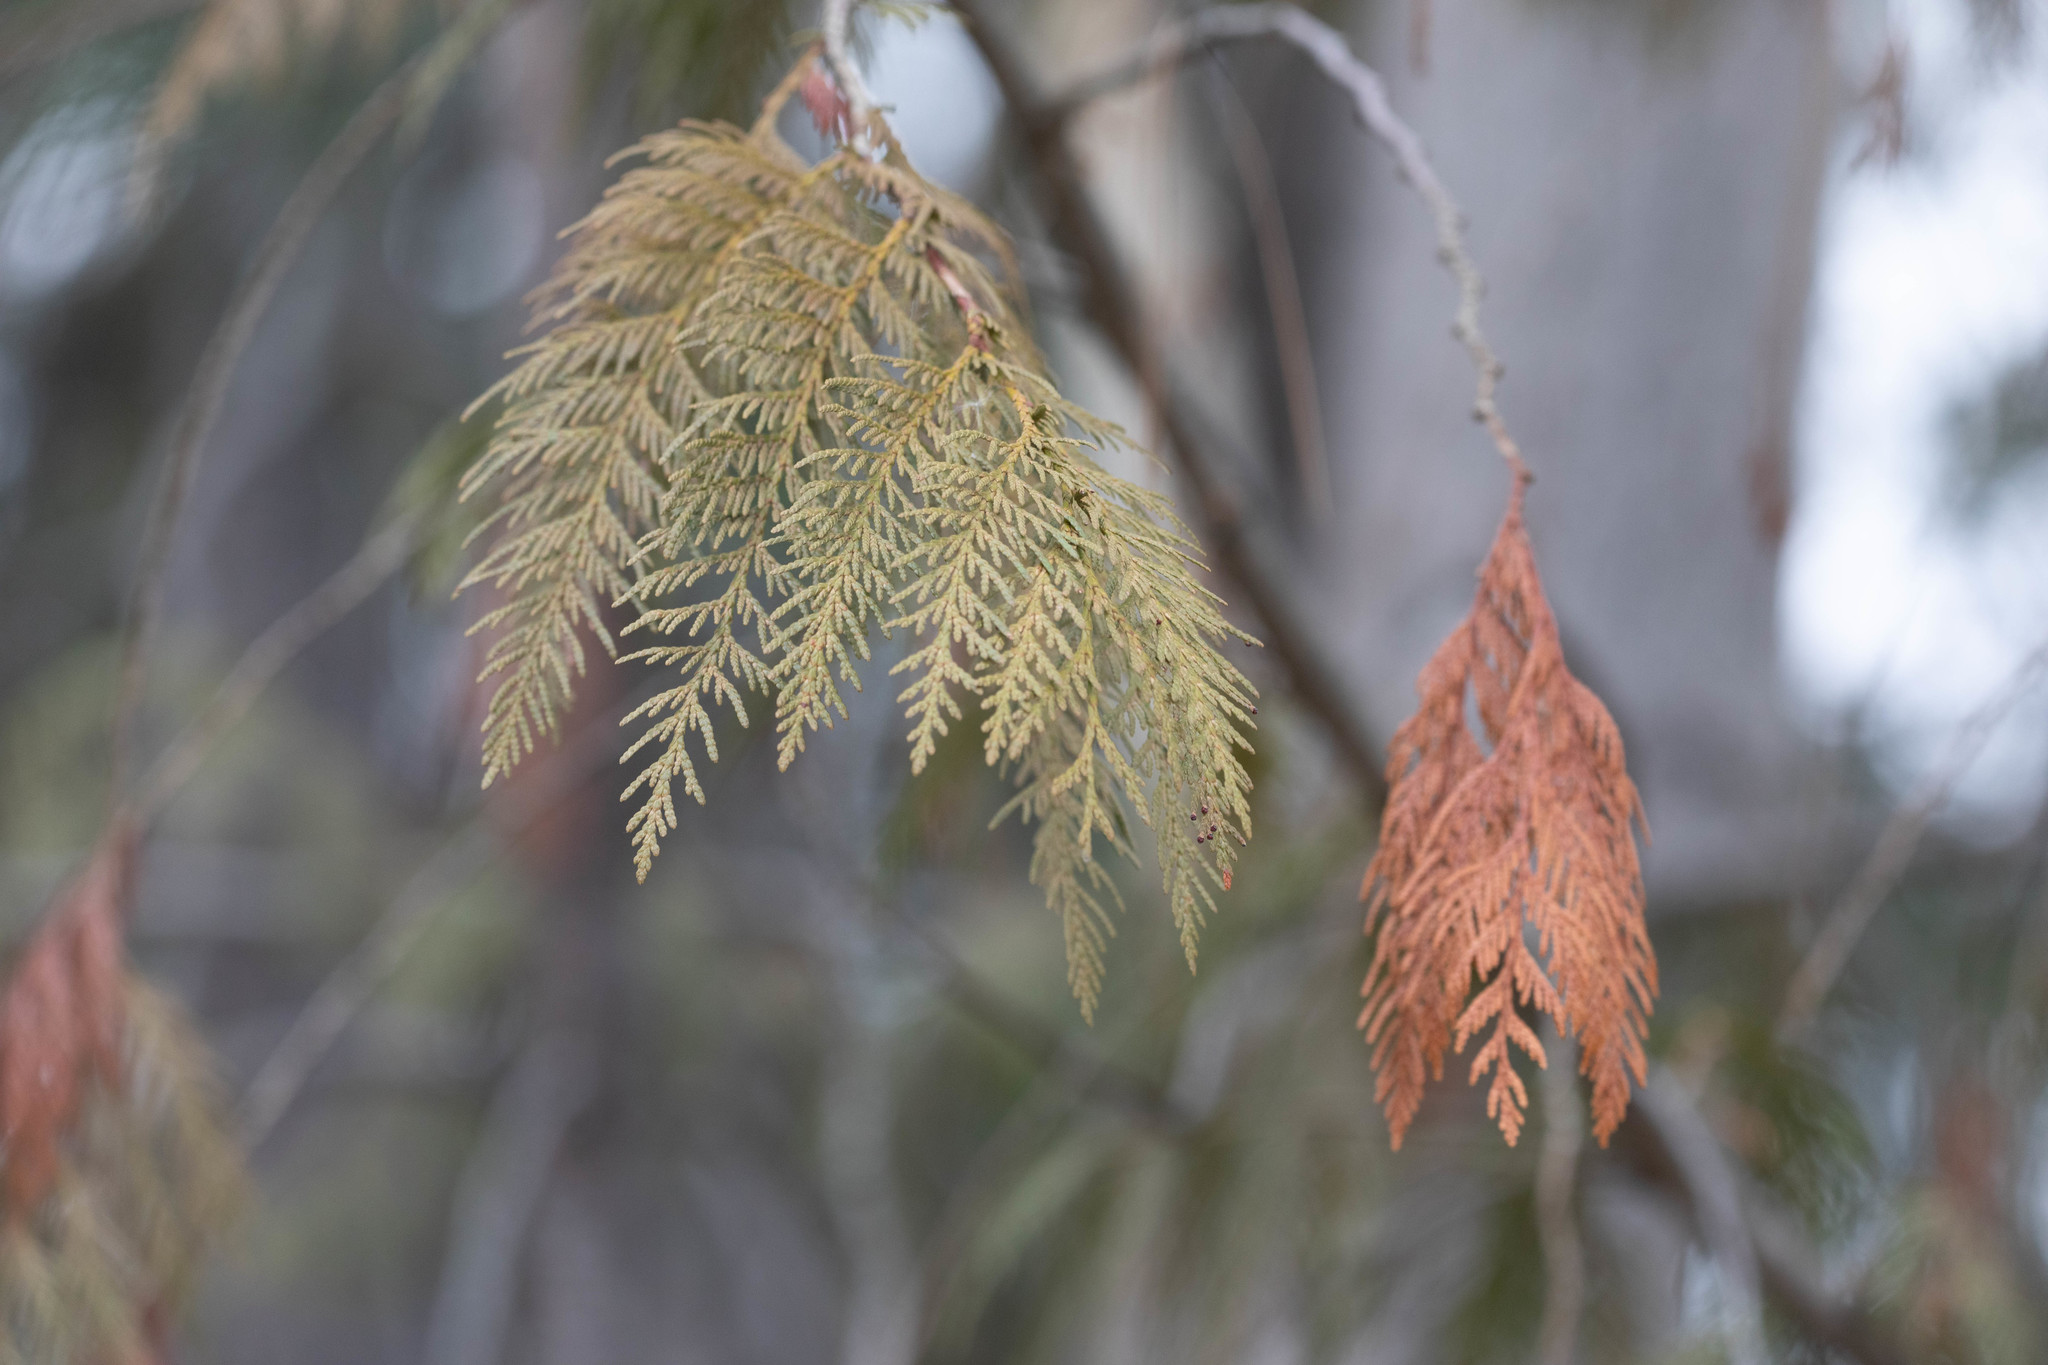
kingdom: Plantae
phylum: Tracheophyta
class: Pinopsida
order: Pinales
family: Cupressaceae
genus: Thuja
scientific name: Thuja plicata
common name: Western red-cedar
